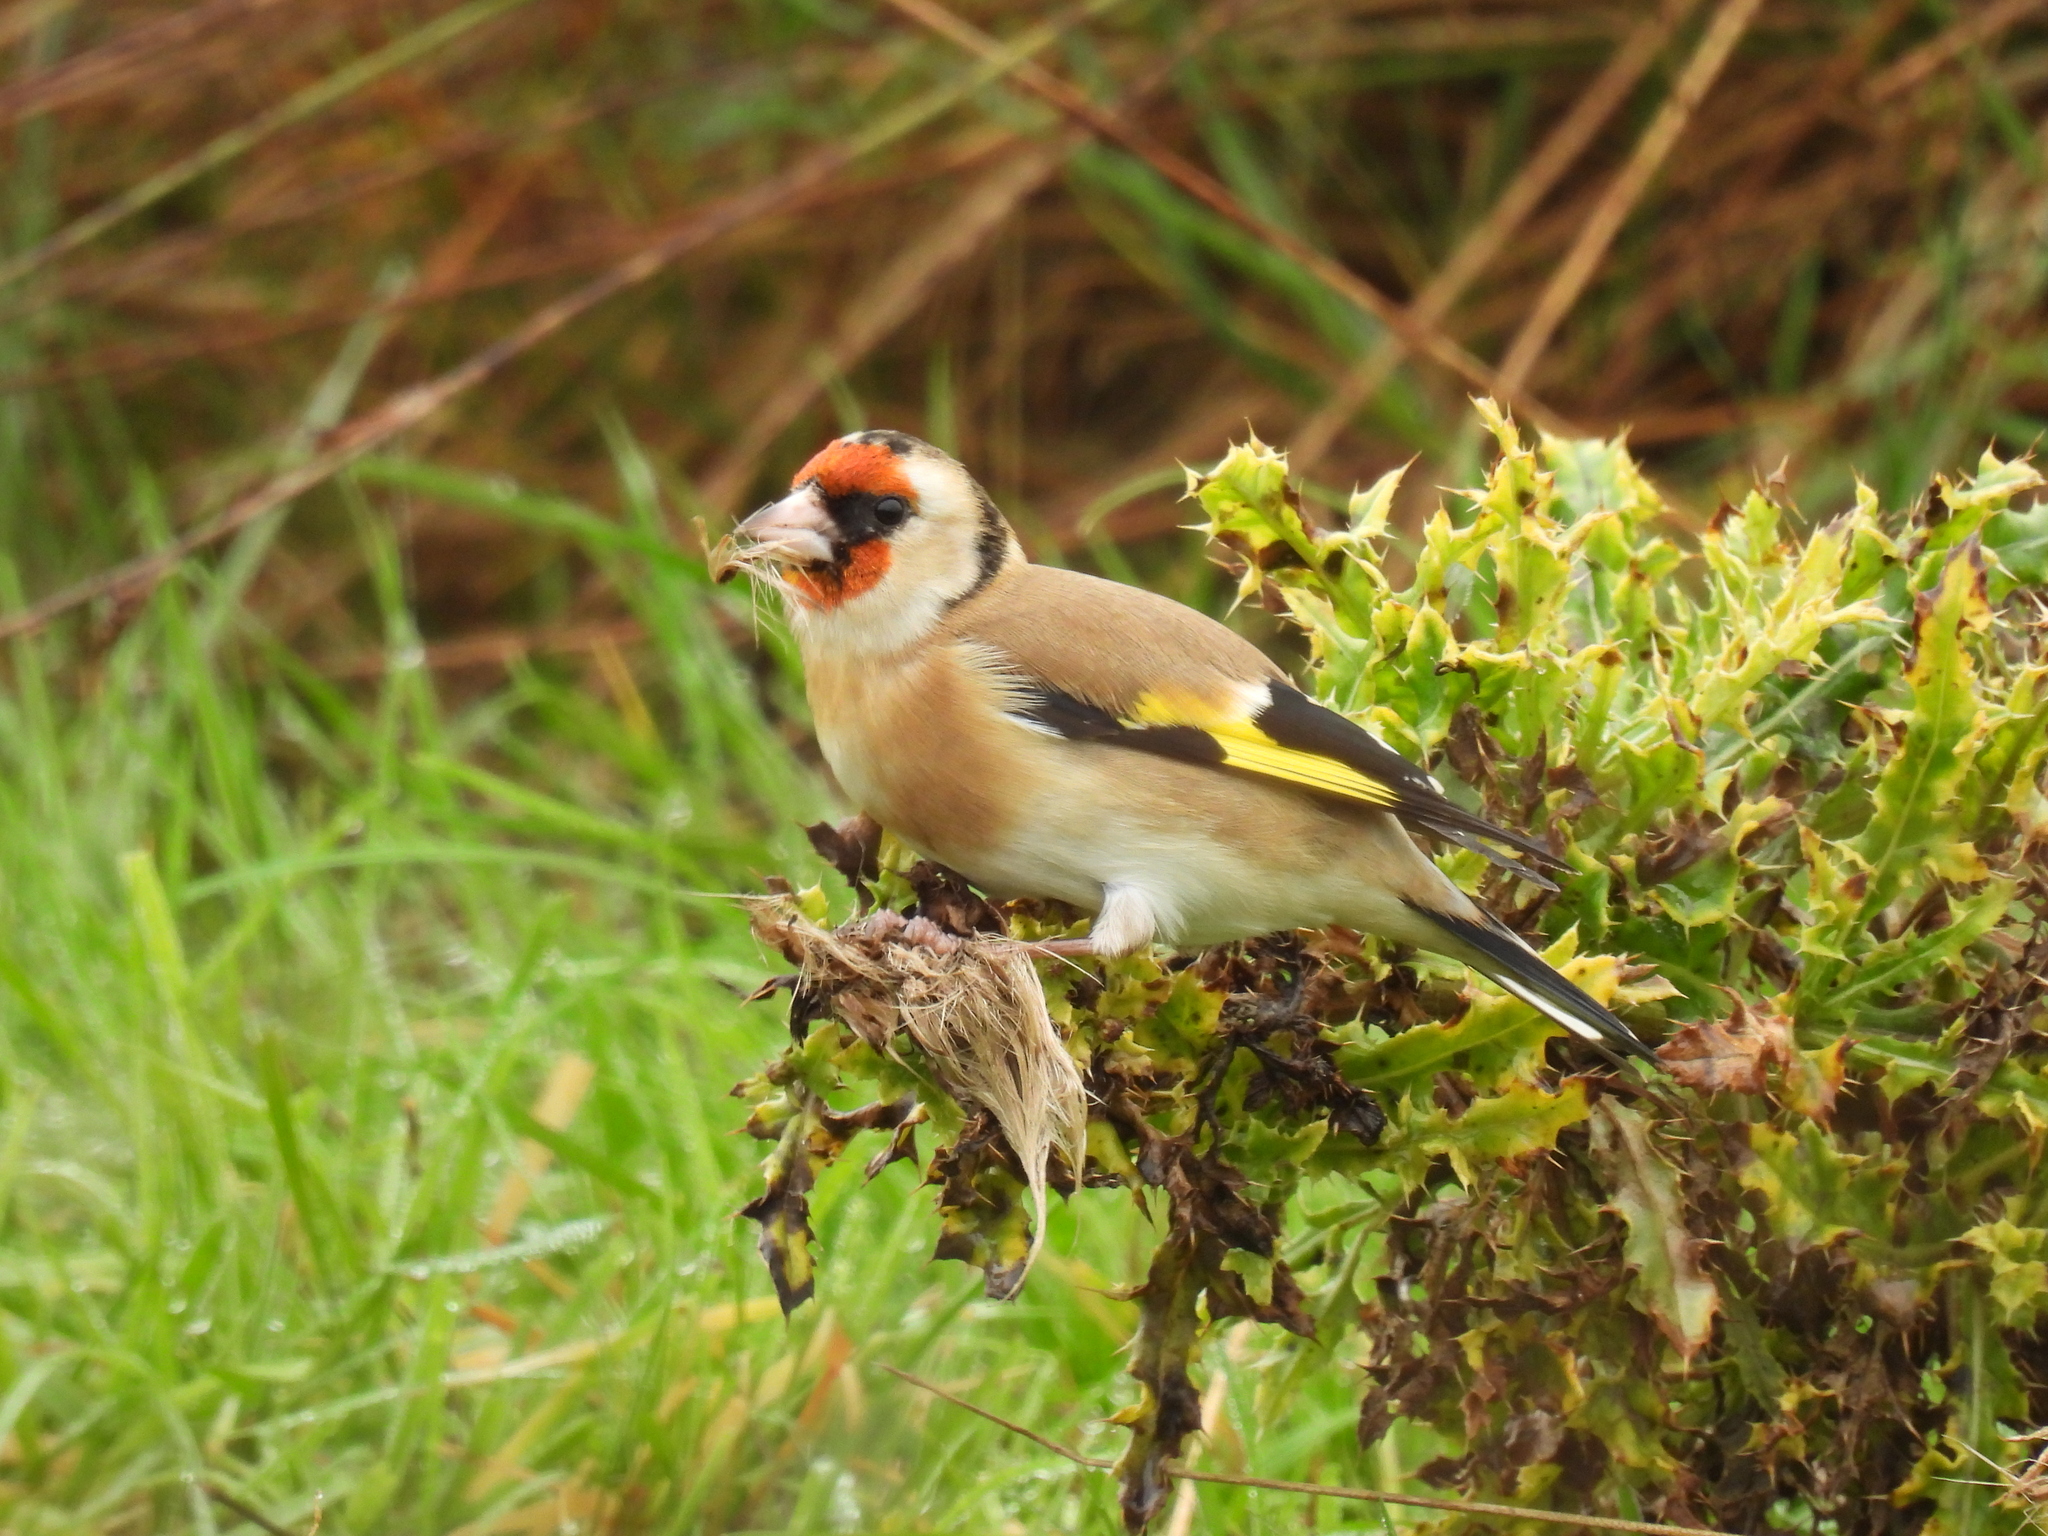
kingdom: Animalia
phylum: Chordata
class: Aves
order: Passeriformes
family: Fringillidae
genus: Carduelis
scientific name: Carduelis carduelis
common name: European goldfinch
